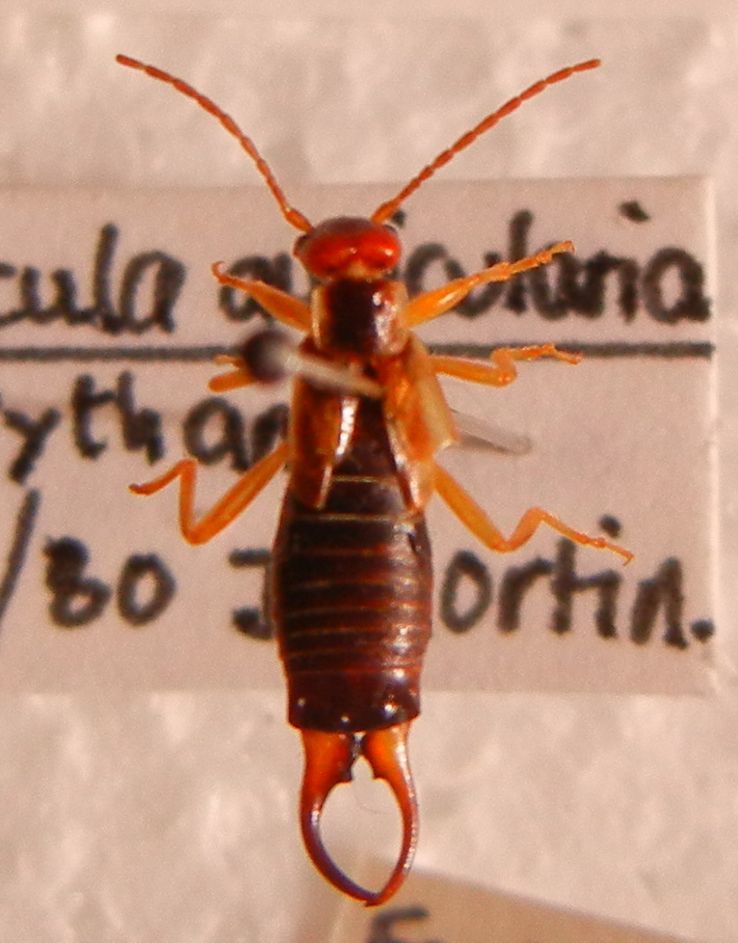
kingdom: Animalia
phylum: Arthropoda
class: Insecta
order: Dermaptera
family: Forficulidae
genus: Forficula
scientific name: Forficula
